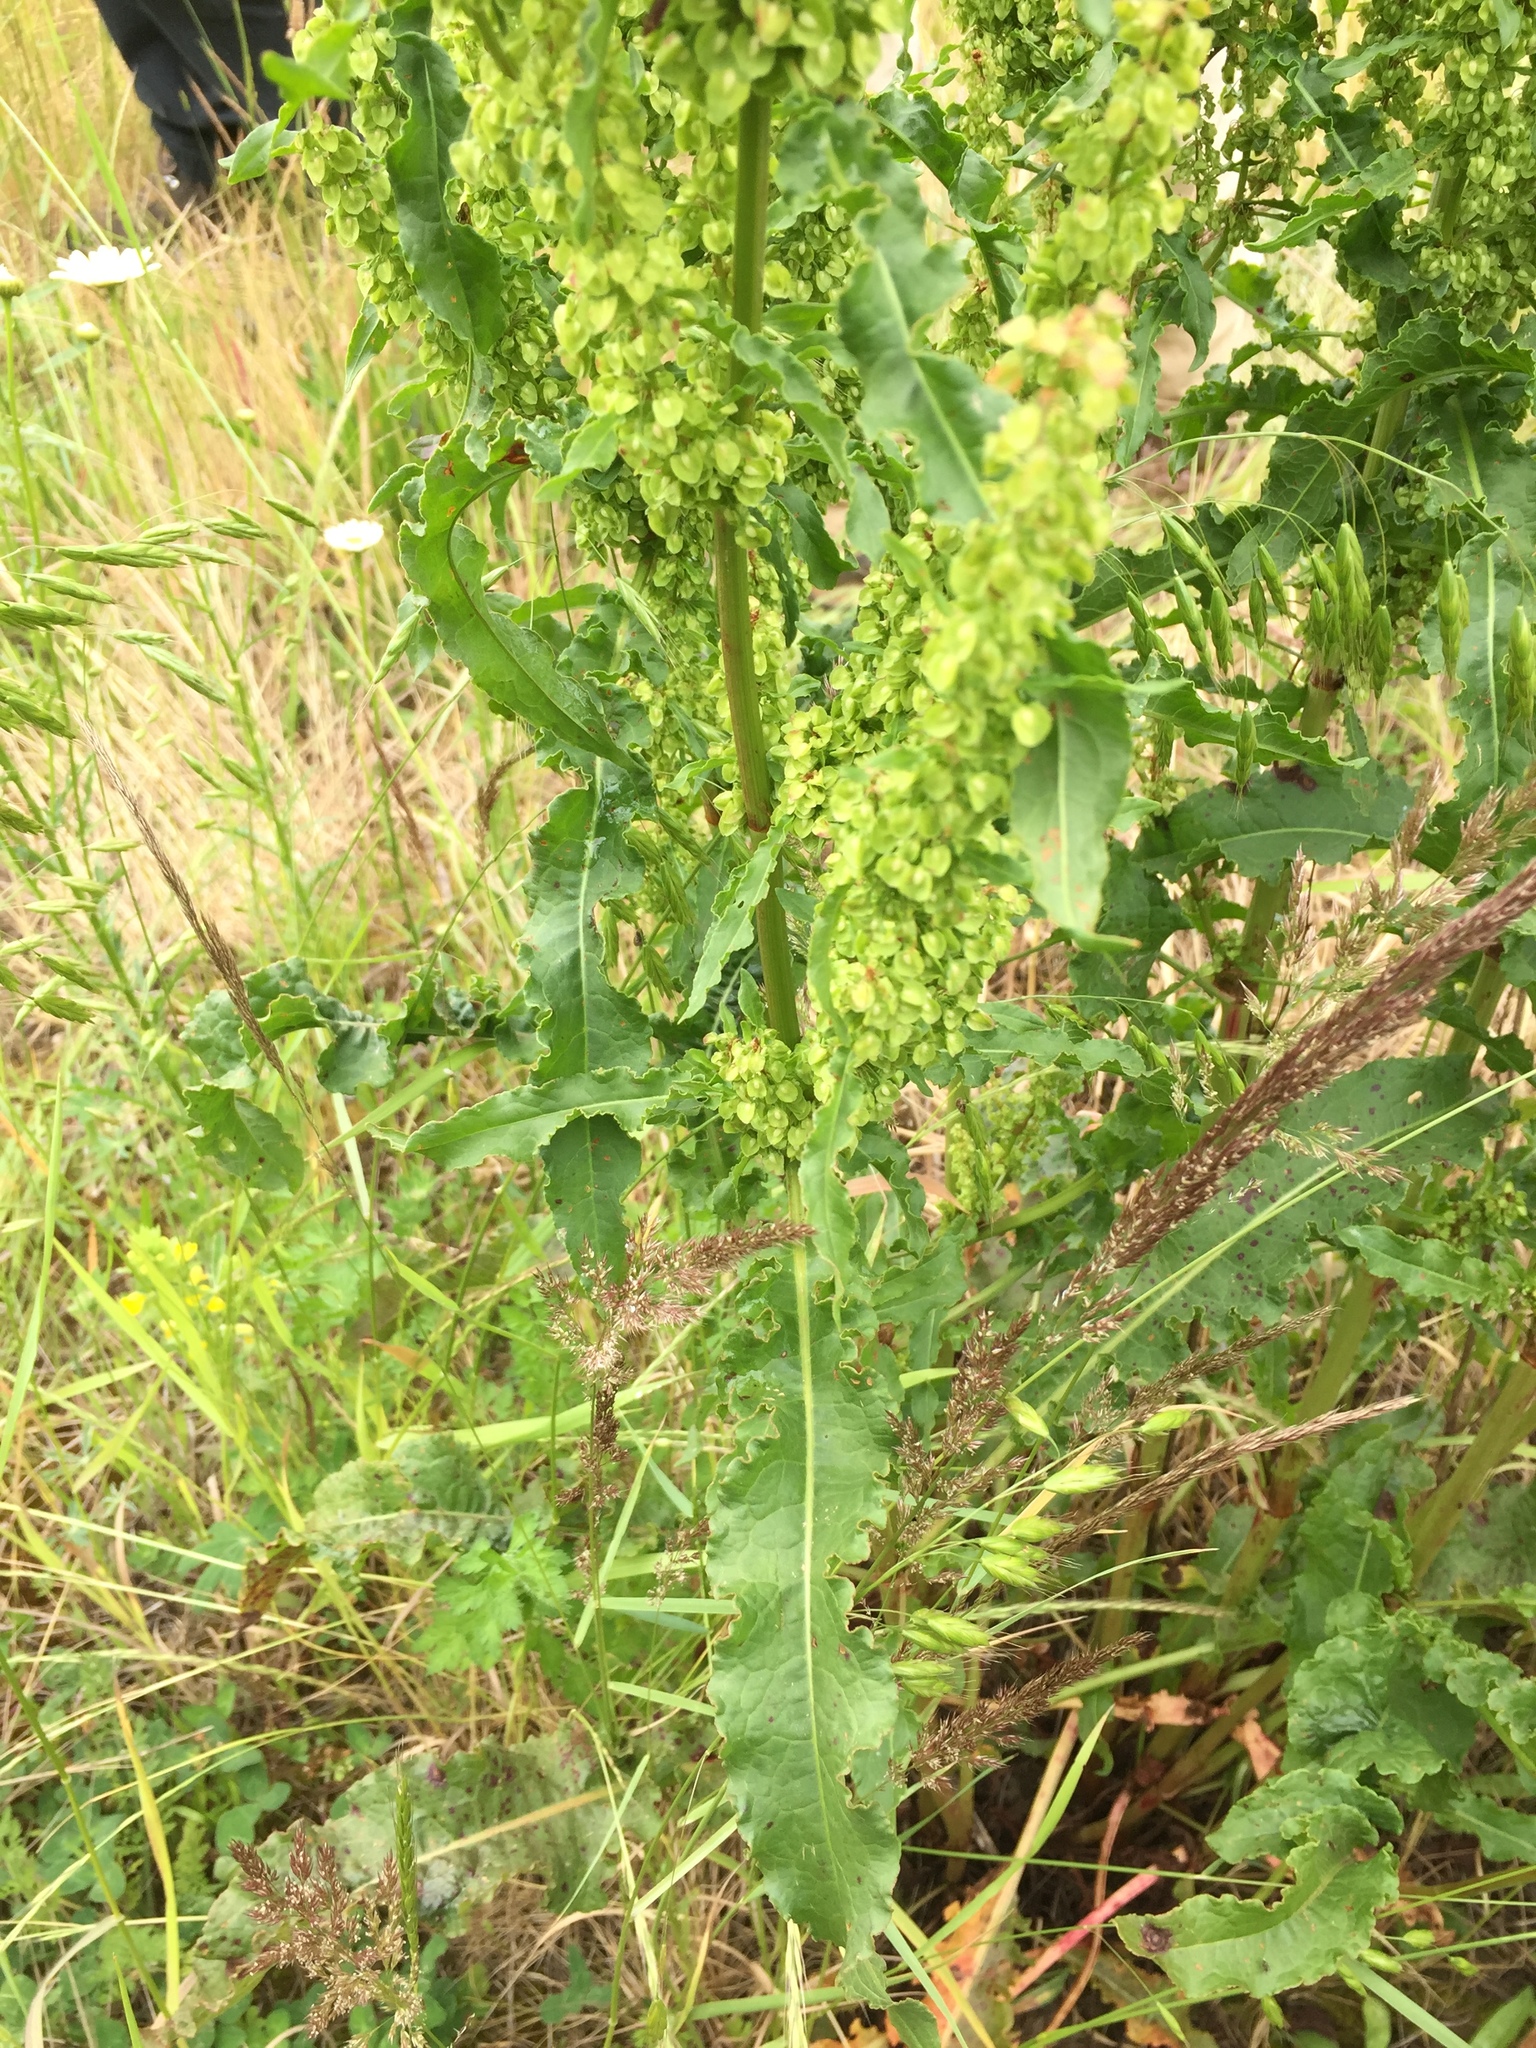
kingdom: Plantae
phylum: Tracheophyta
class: Magnoliopsida
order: Caryophyllales
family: Polygonaceae
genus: Rumex
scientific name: Rumex crispus
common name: Curled dock
